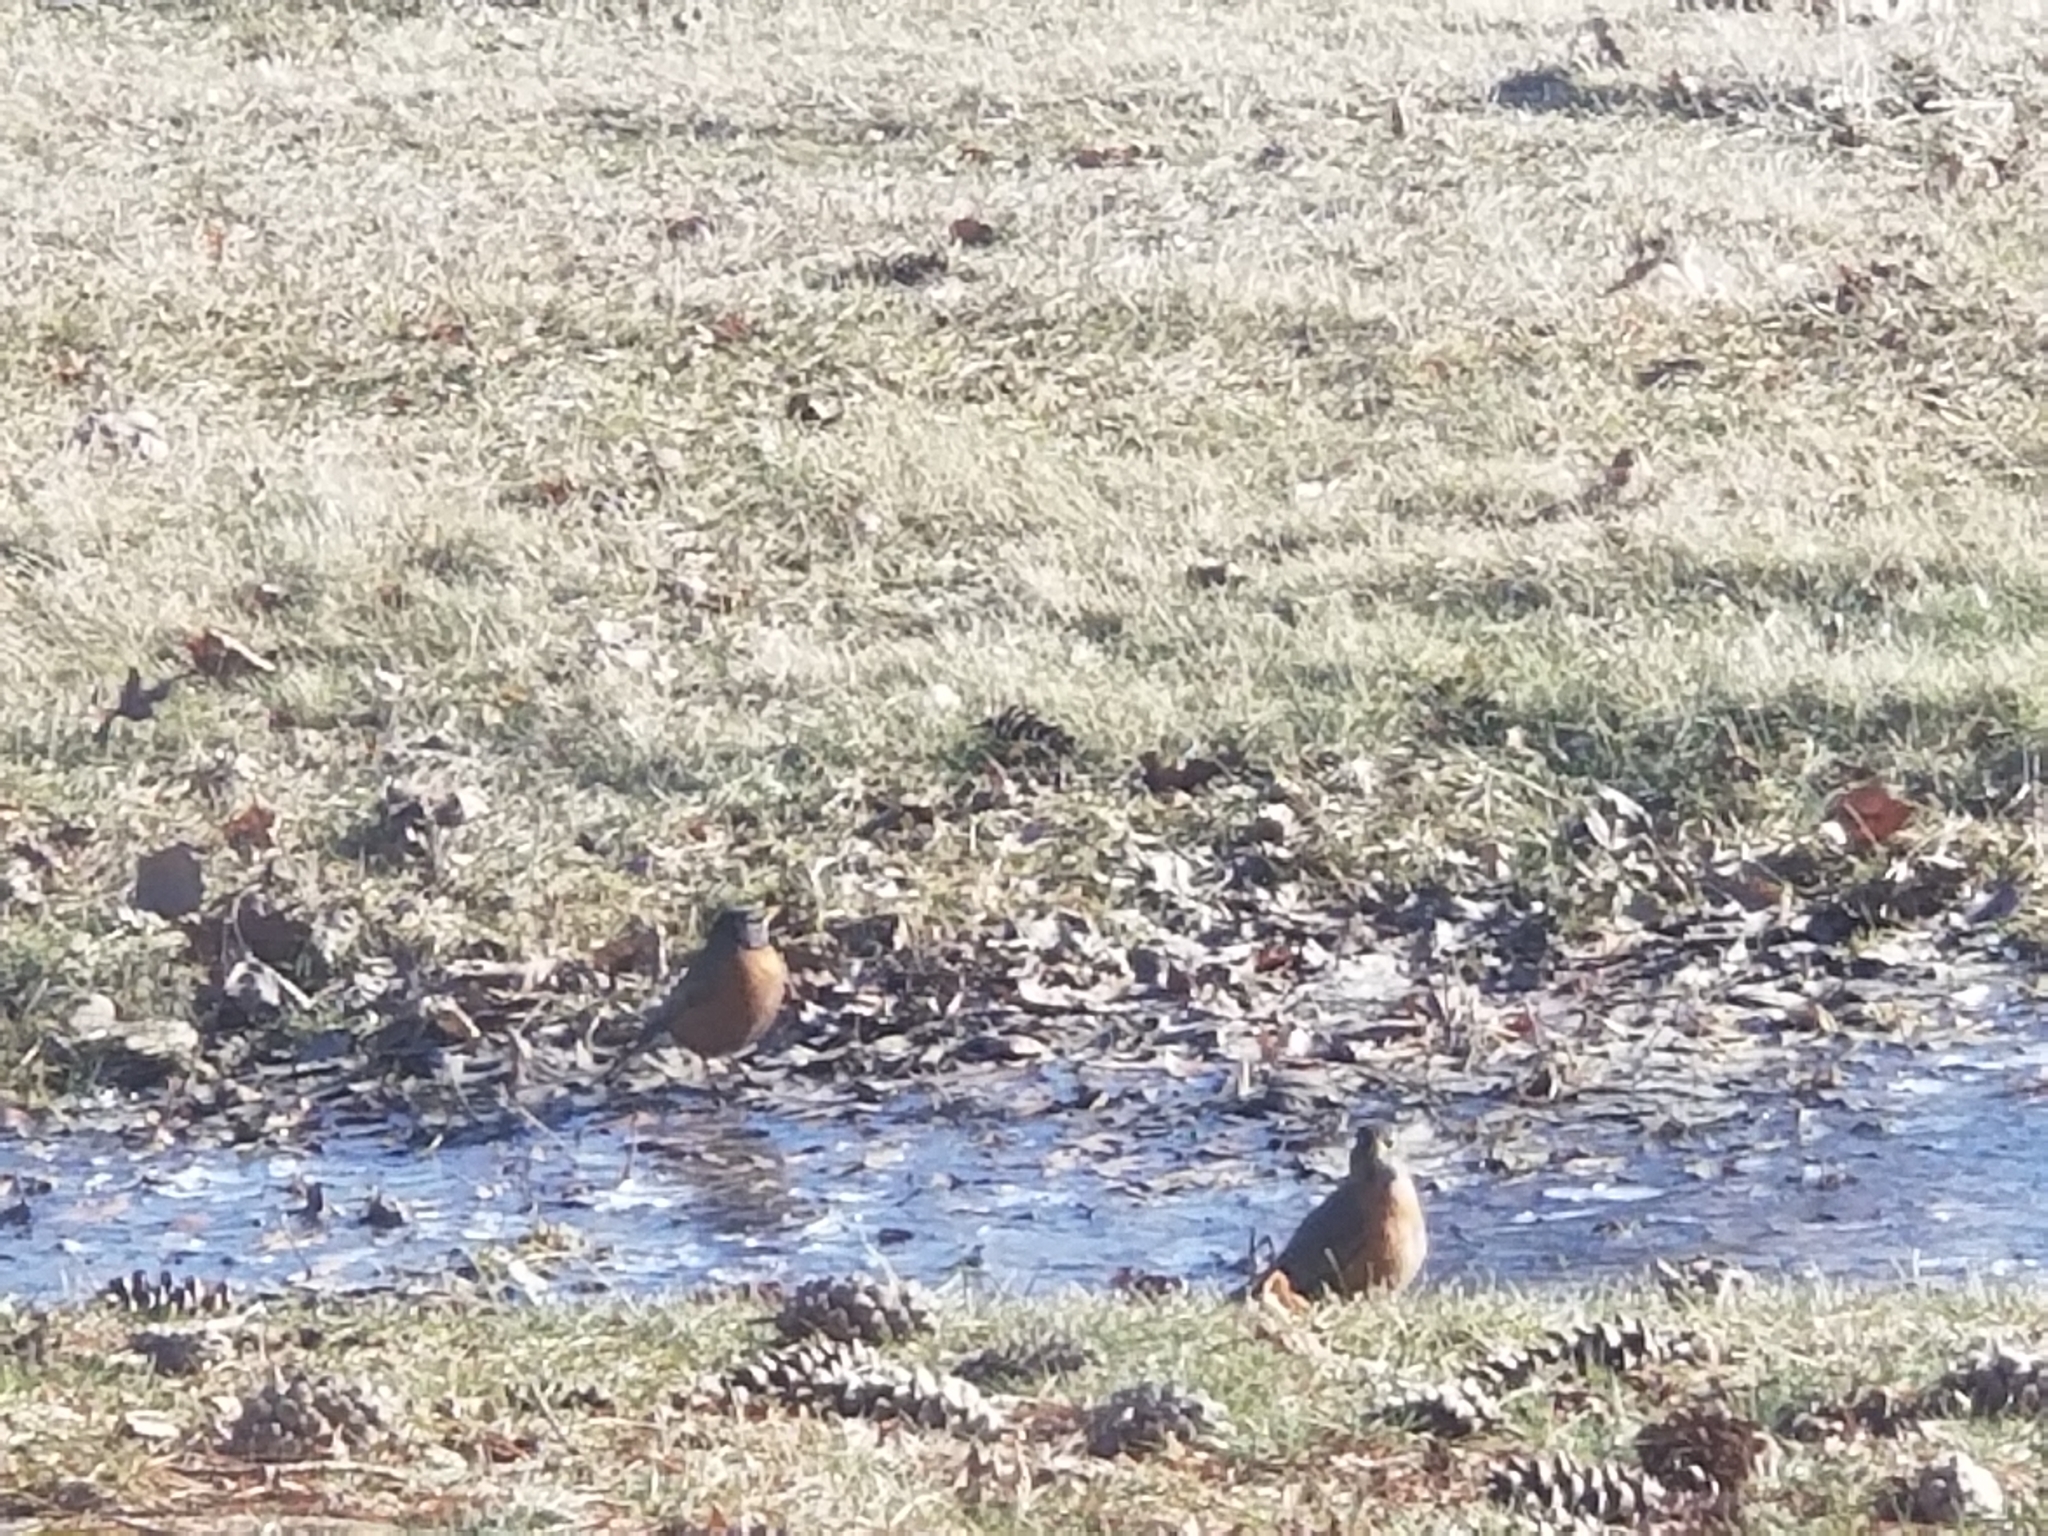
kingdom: Animalia
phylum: Chordata
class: Aves
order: Passeriformes
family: Turdidae
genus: Turdus
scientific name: Turdus migratorius
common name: American robin
